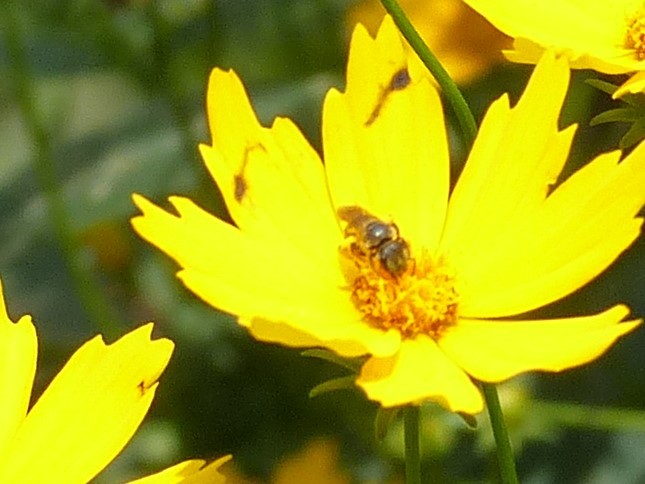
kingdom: Animalia
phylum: Arthropoda
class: Insecta
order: Hymenoptera
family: Halictidae
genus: Halictus
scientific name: Halictus ligatus
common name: Ligated furrow bee
